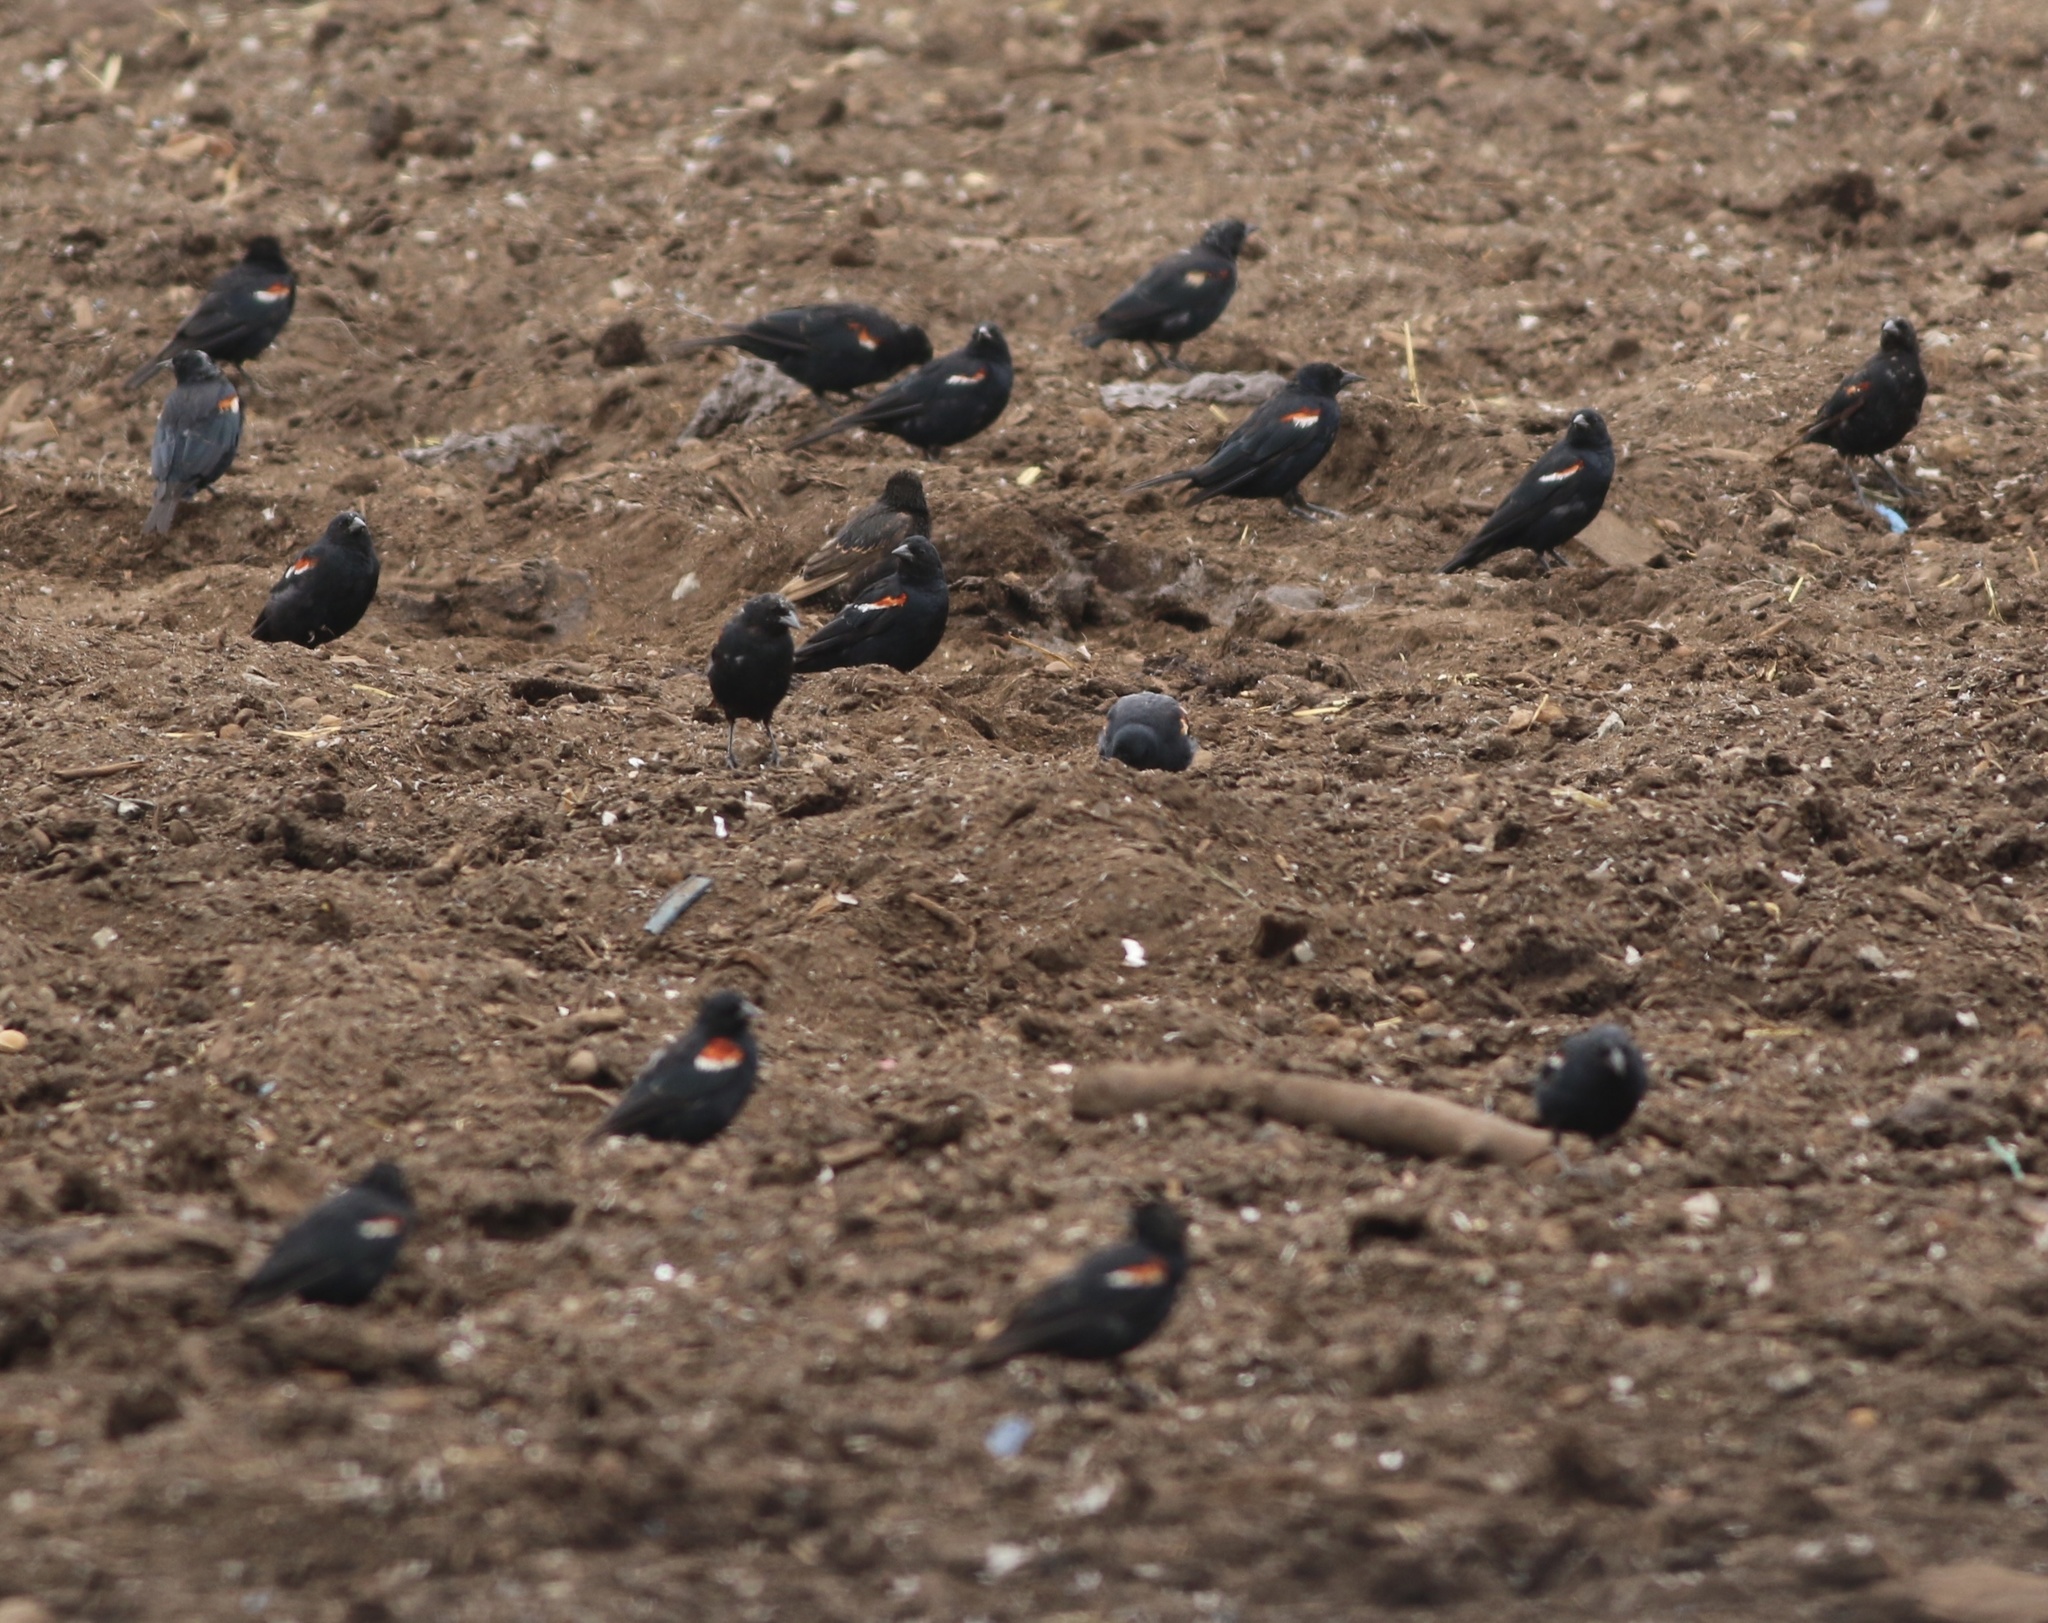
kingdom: Animalia
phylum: Chordata
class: Aves
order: Passeriformes
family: Icteridae
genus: Agelaius
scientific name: Agelaius tricolor
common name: Tricolored blackbird
